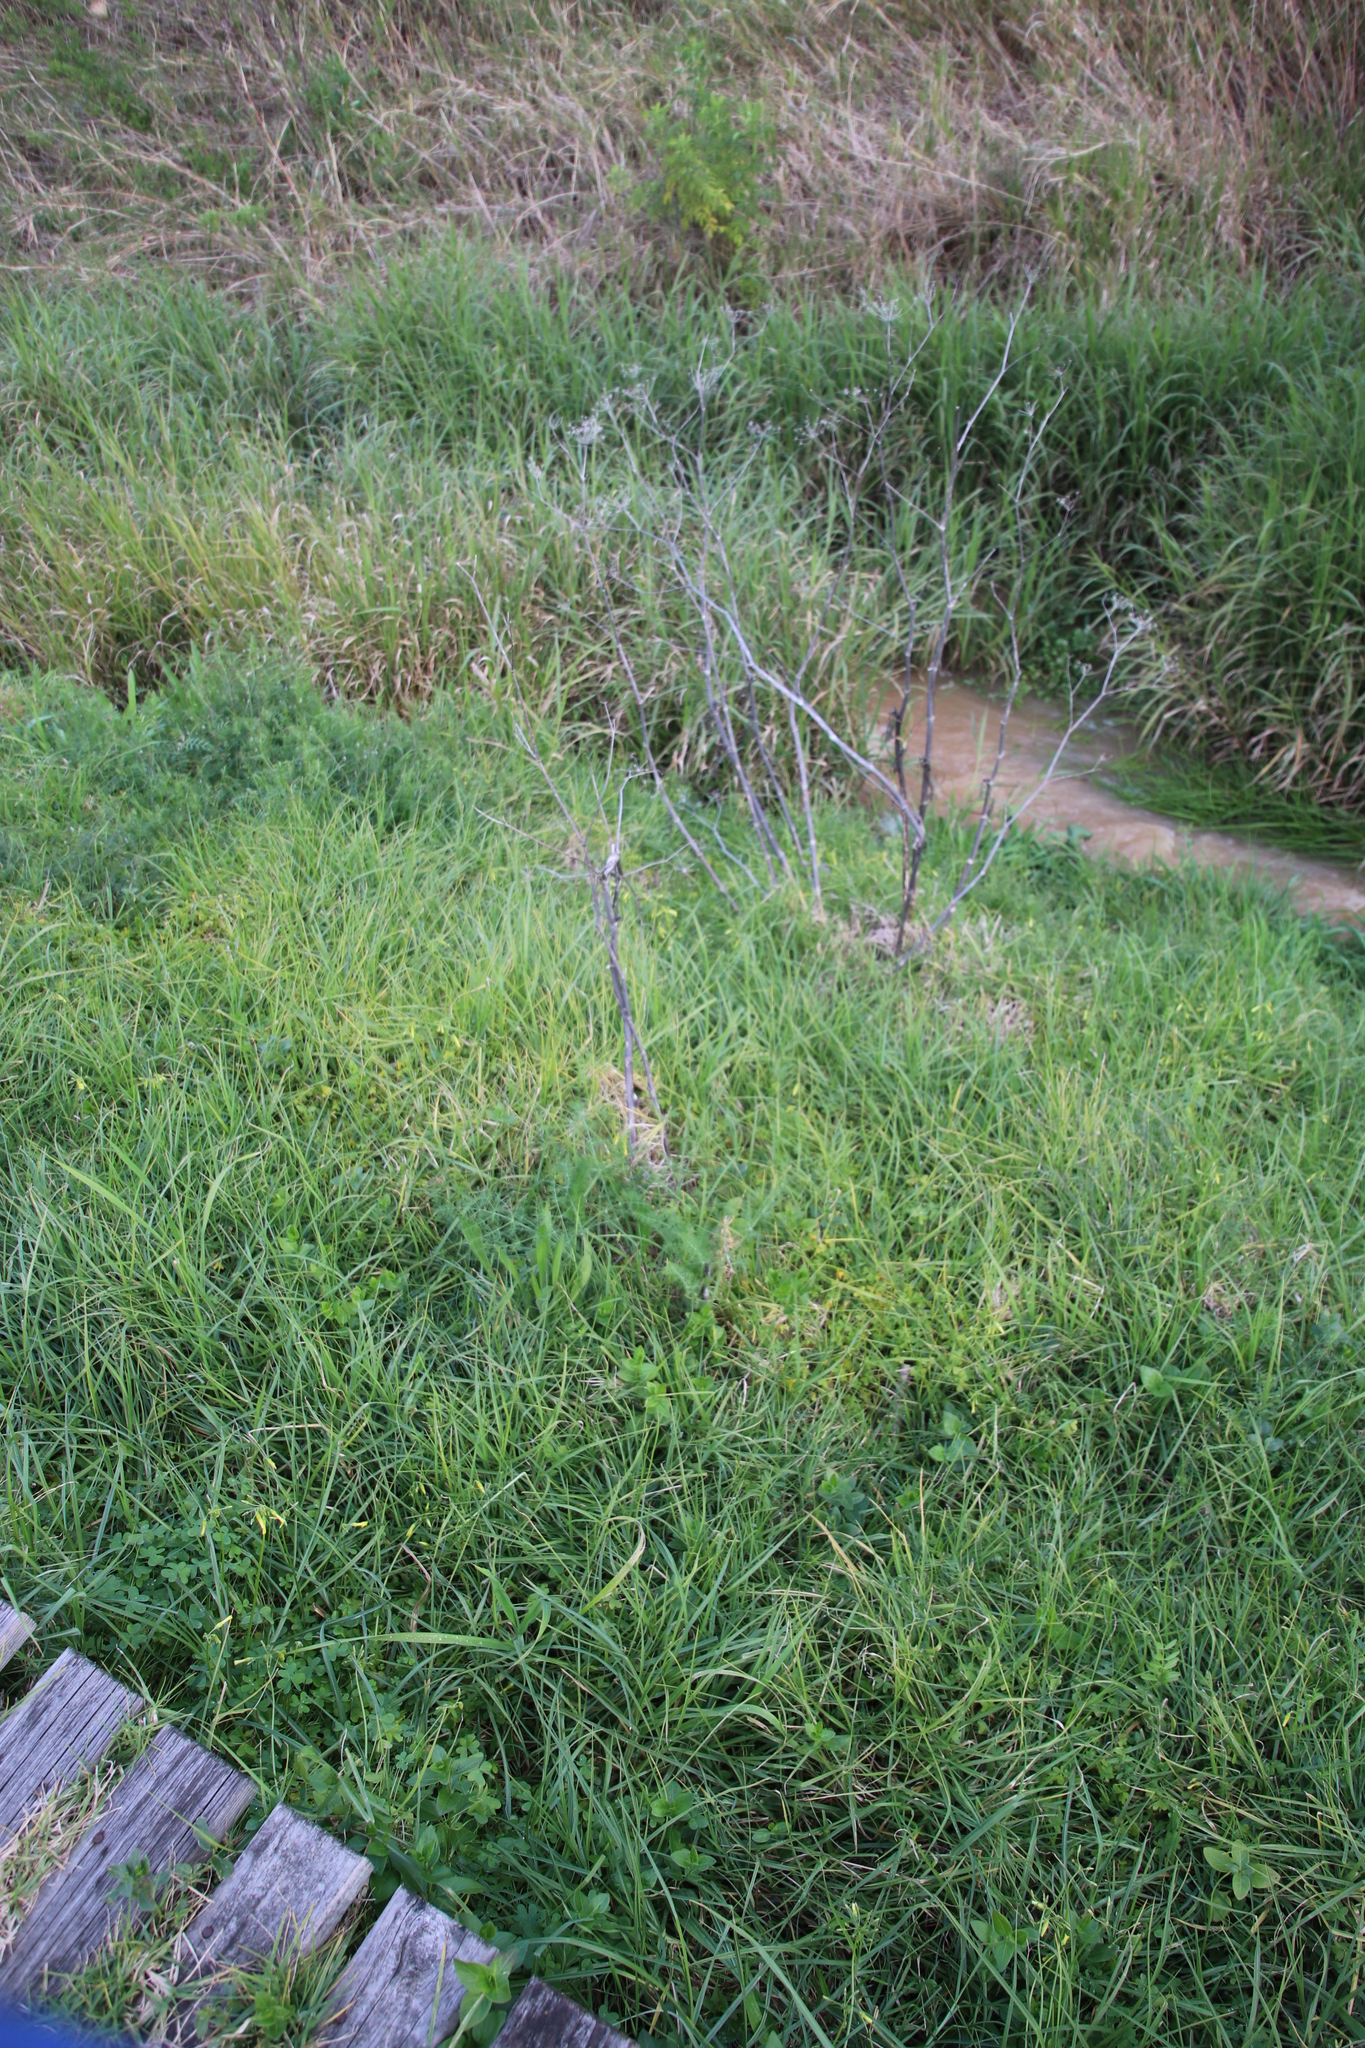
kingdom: Plantae
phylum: Tracheophyta
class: Magnoliopsida
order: Apiales
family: Apiaceae
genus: Foeniculum
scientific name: Foeniculum vulgare
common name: Fennel
